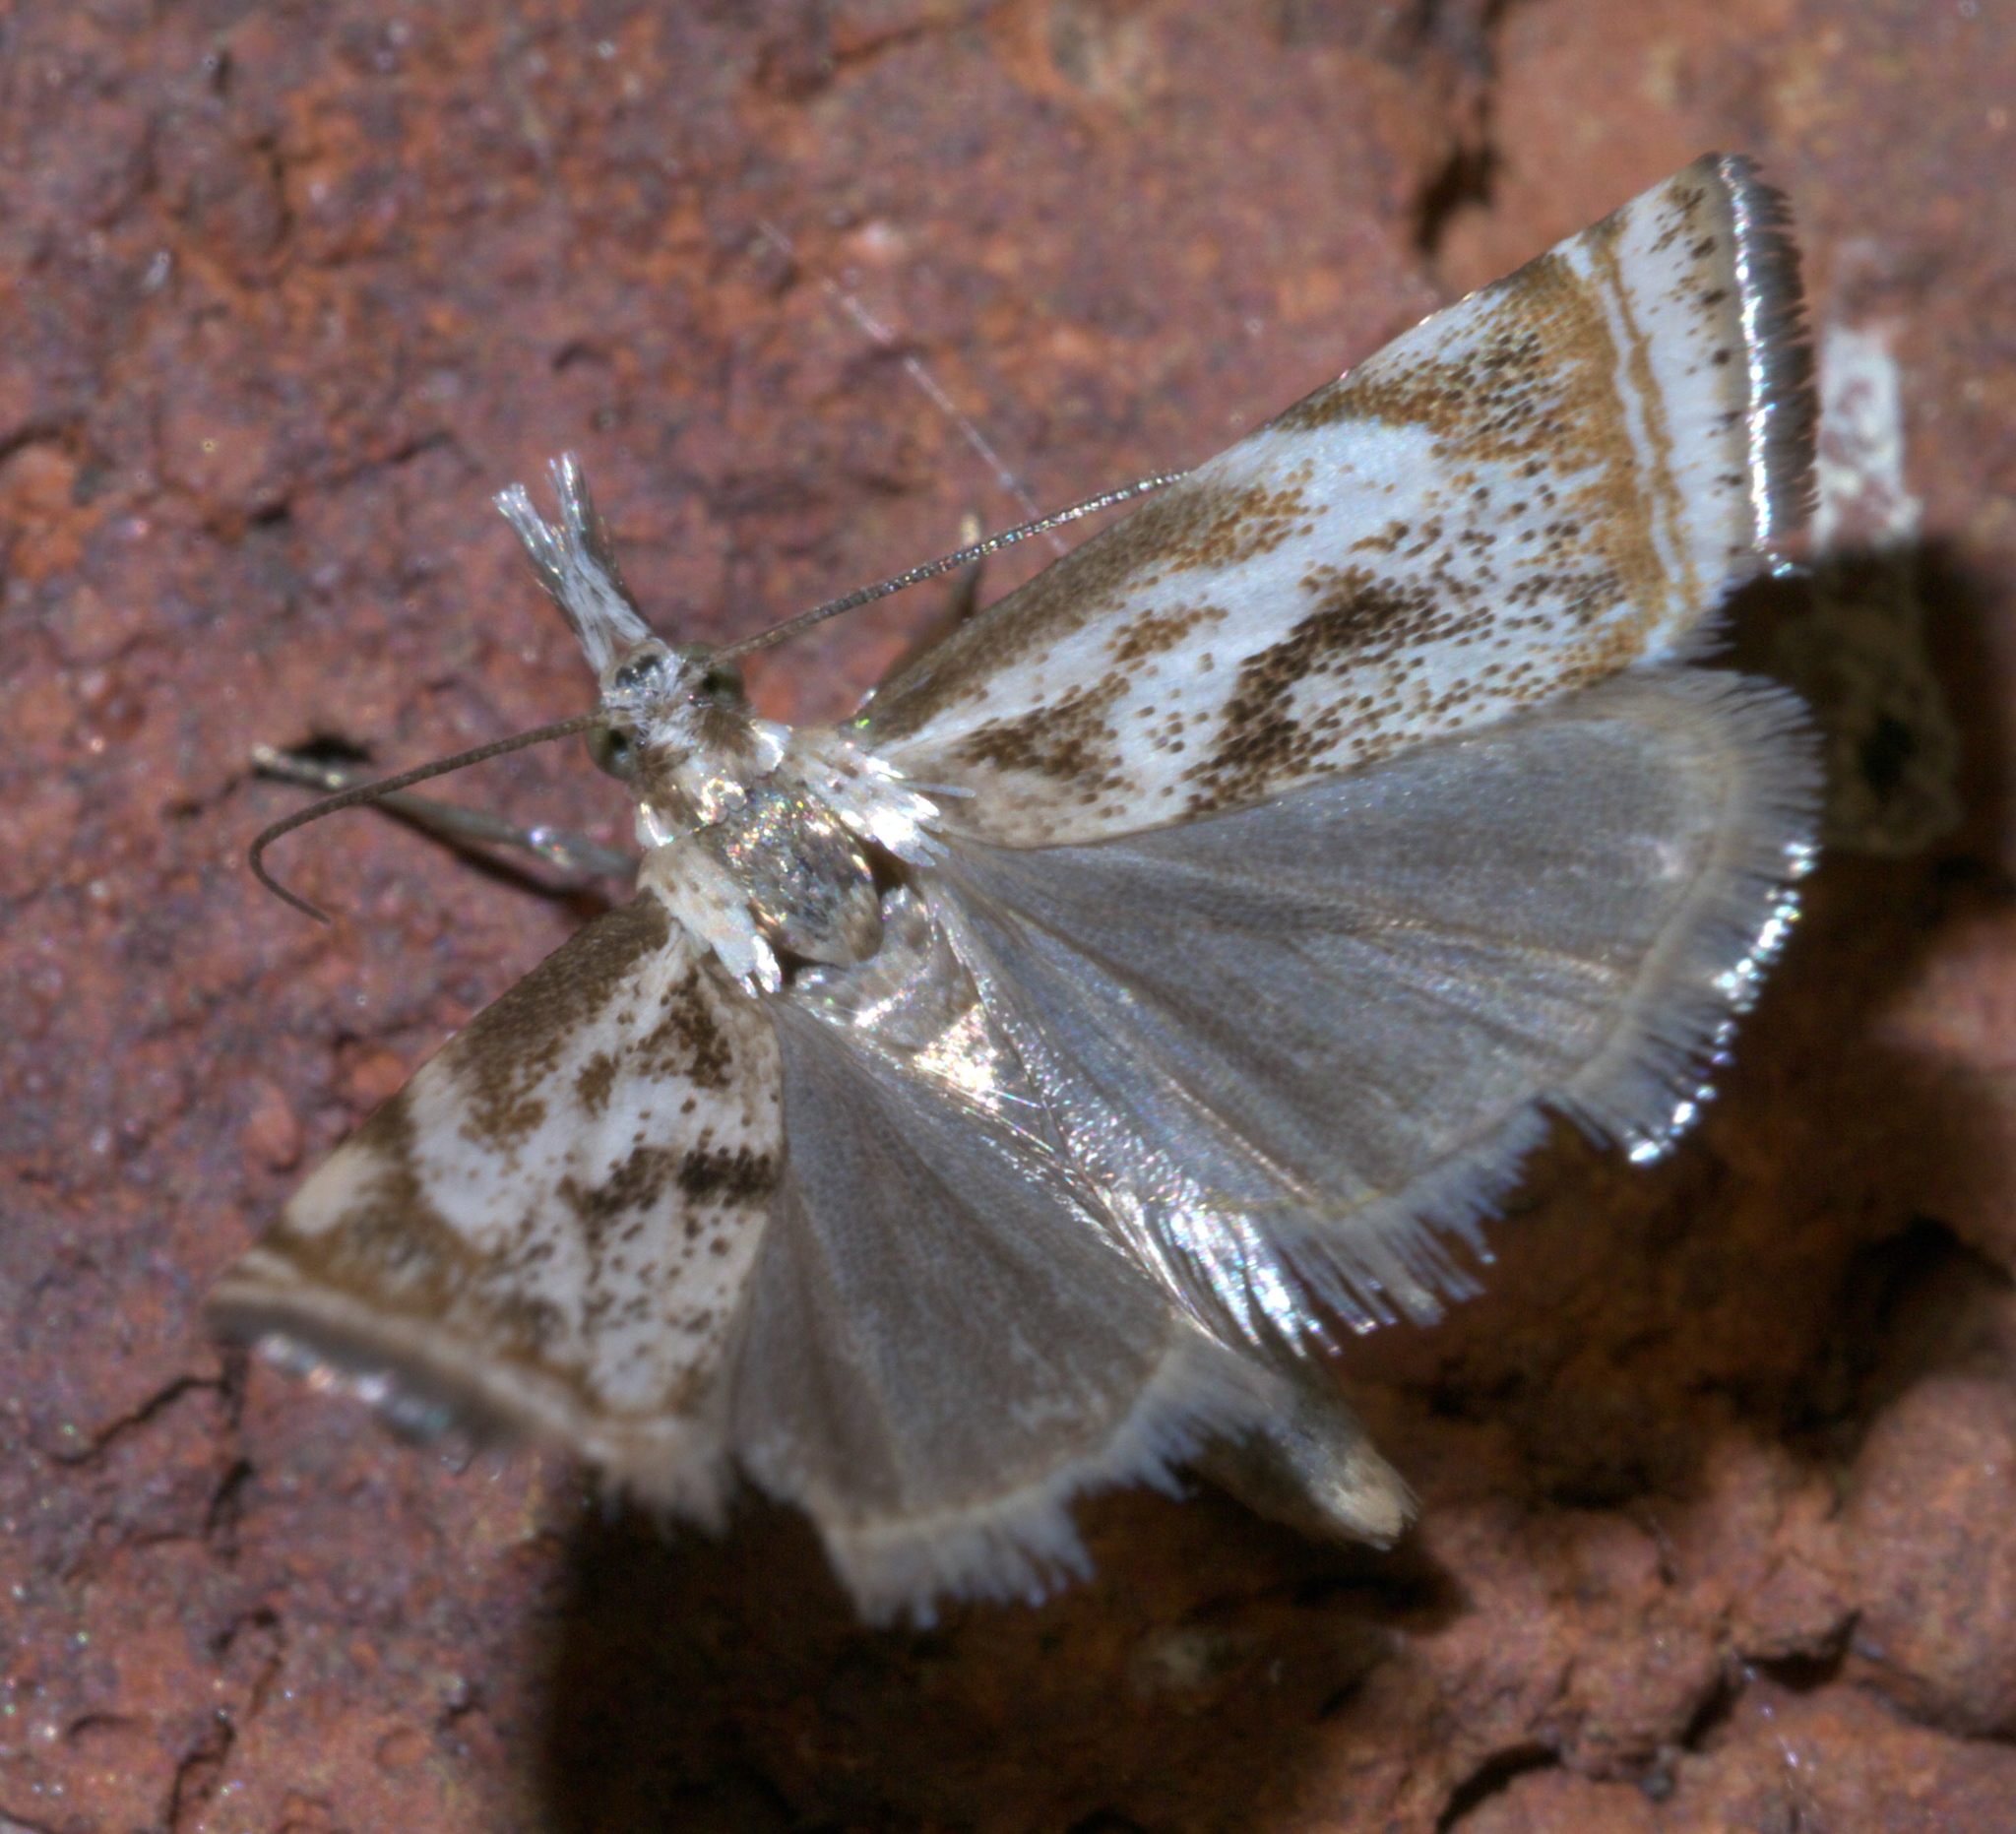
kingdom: Animalia
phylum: Arthropoda
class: Insecta
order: Lepidoptera
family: Crambidae
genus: Microcrambus
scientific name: Microcrambus elegans
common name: Elegant grass-veneer
